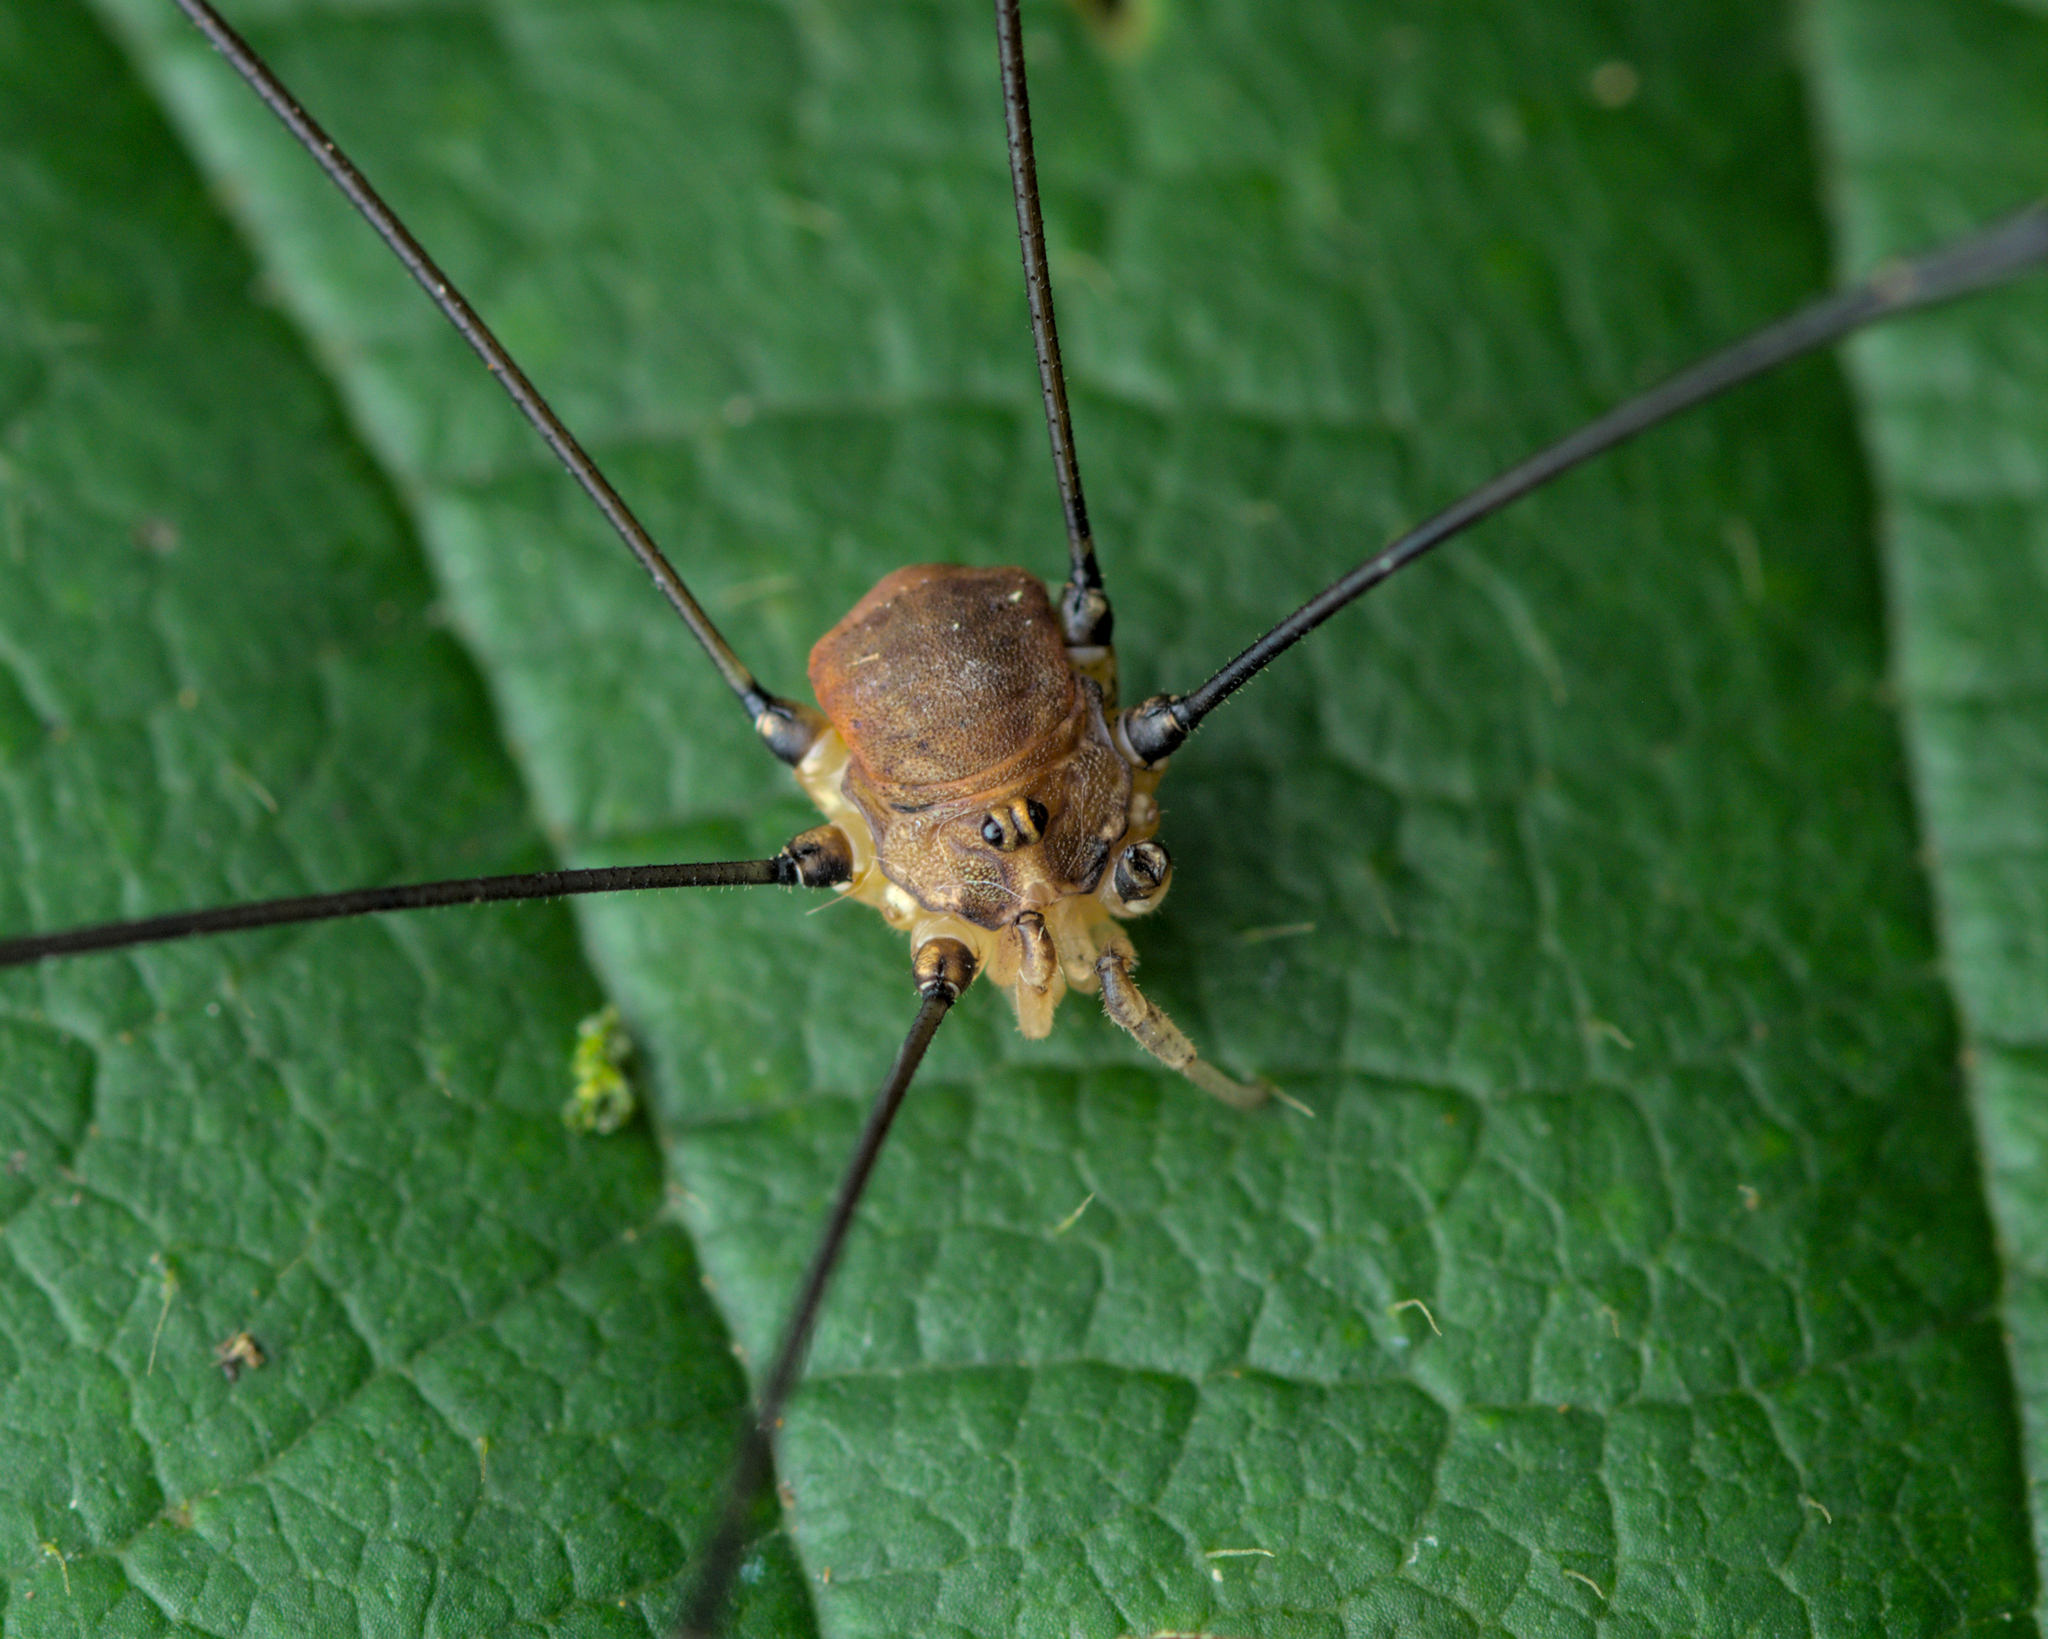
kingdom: Animalia
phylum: Arthropoda
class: Arachnida
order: Opiliones
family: Sclerosomatidae
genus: Leiobunum
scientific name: Leiobunum blackwalli
